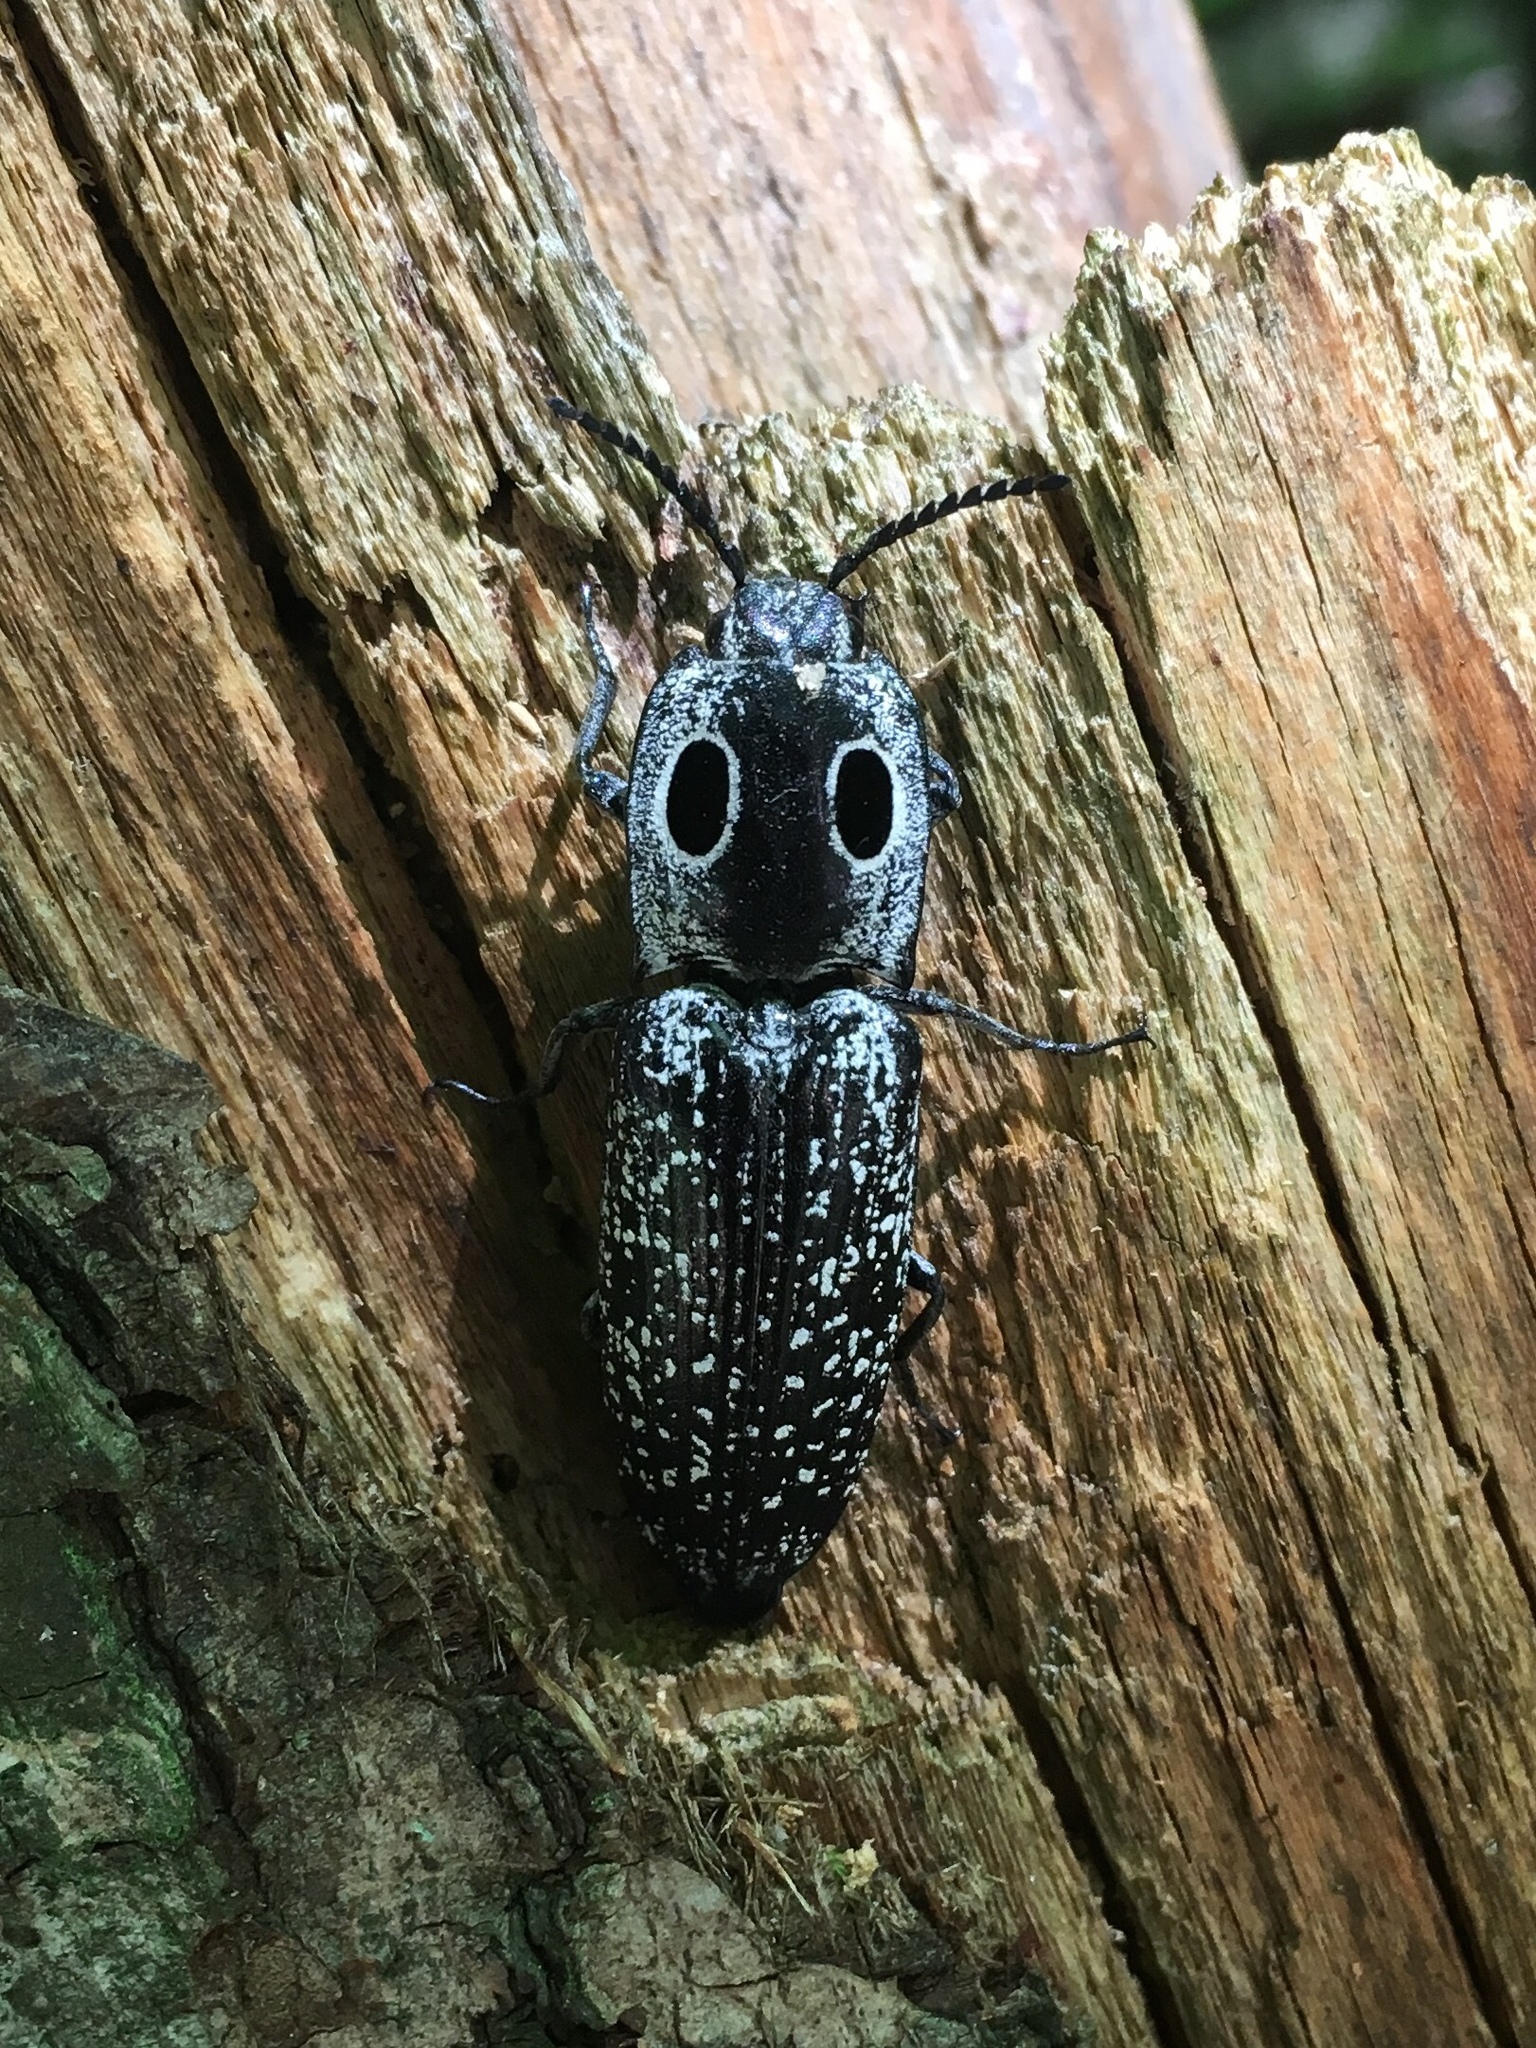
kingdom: Animalia
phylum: Arthropoda
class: Insecta
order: Coleoptera
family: Elateridae
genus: Alaus
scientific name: Alaus oculatus
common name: Eastern eyed click beetle
